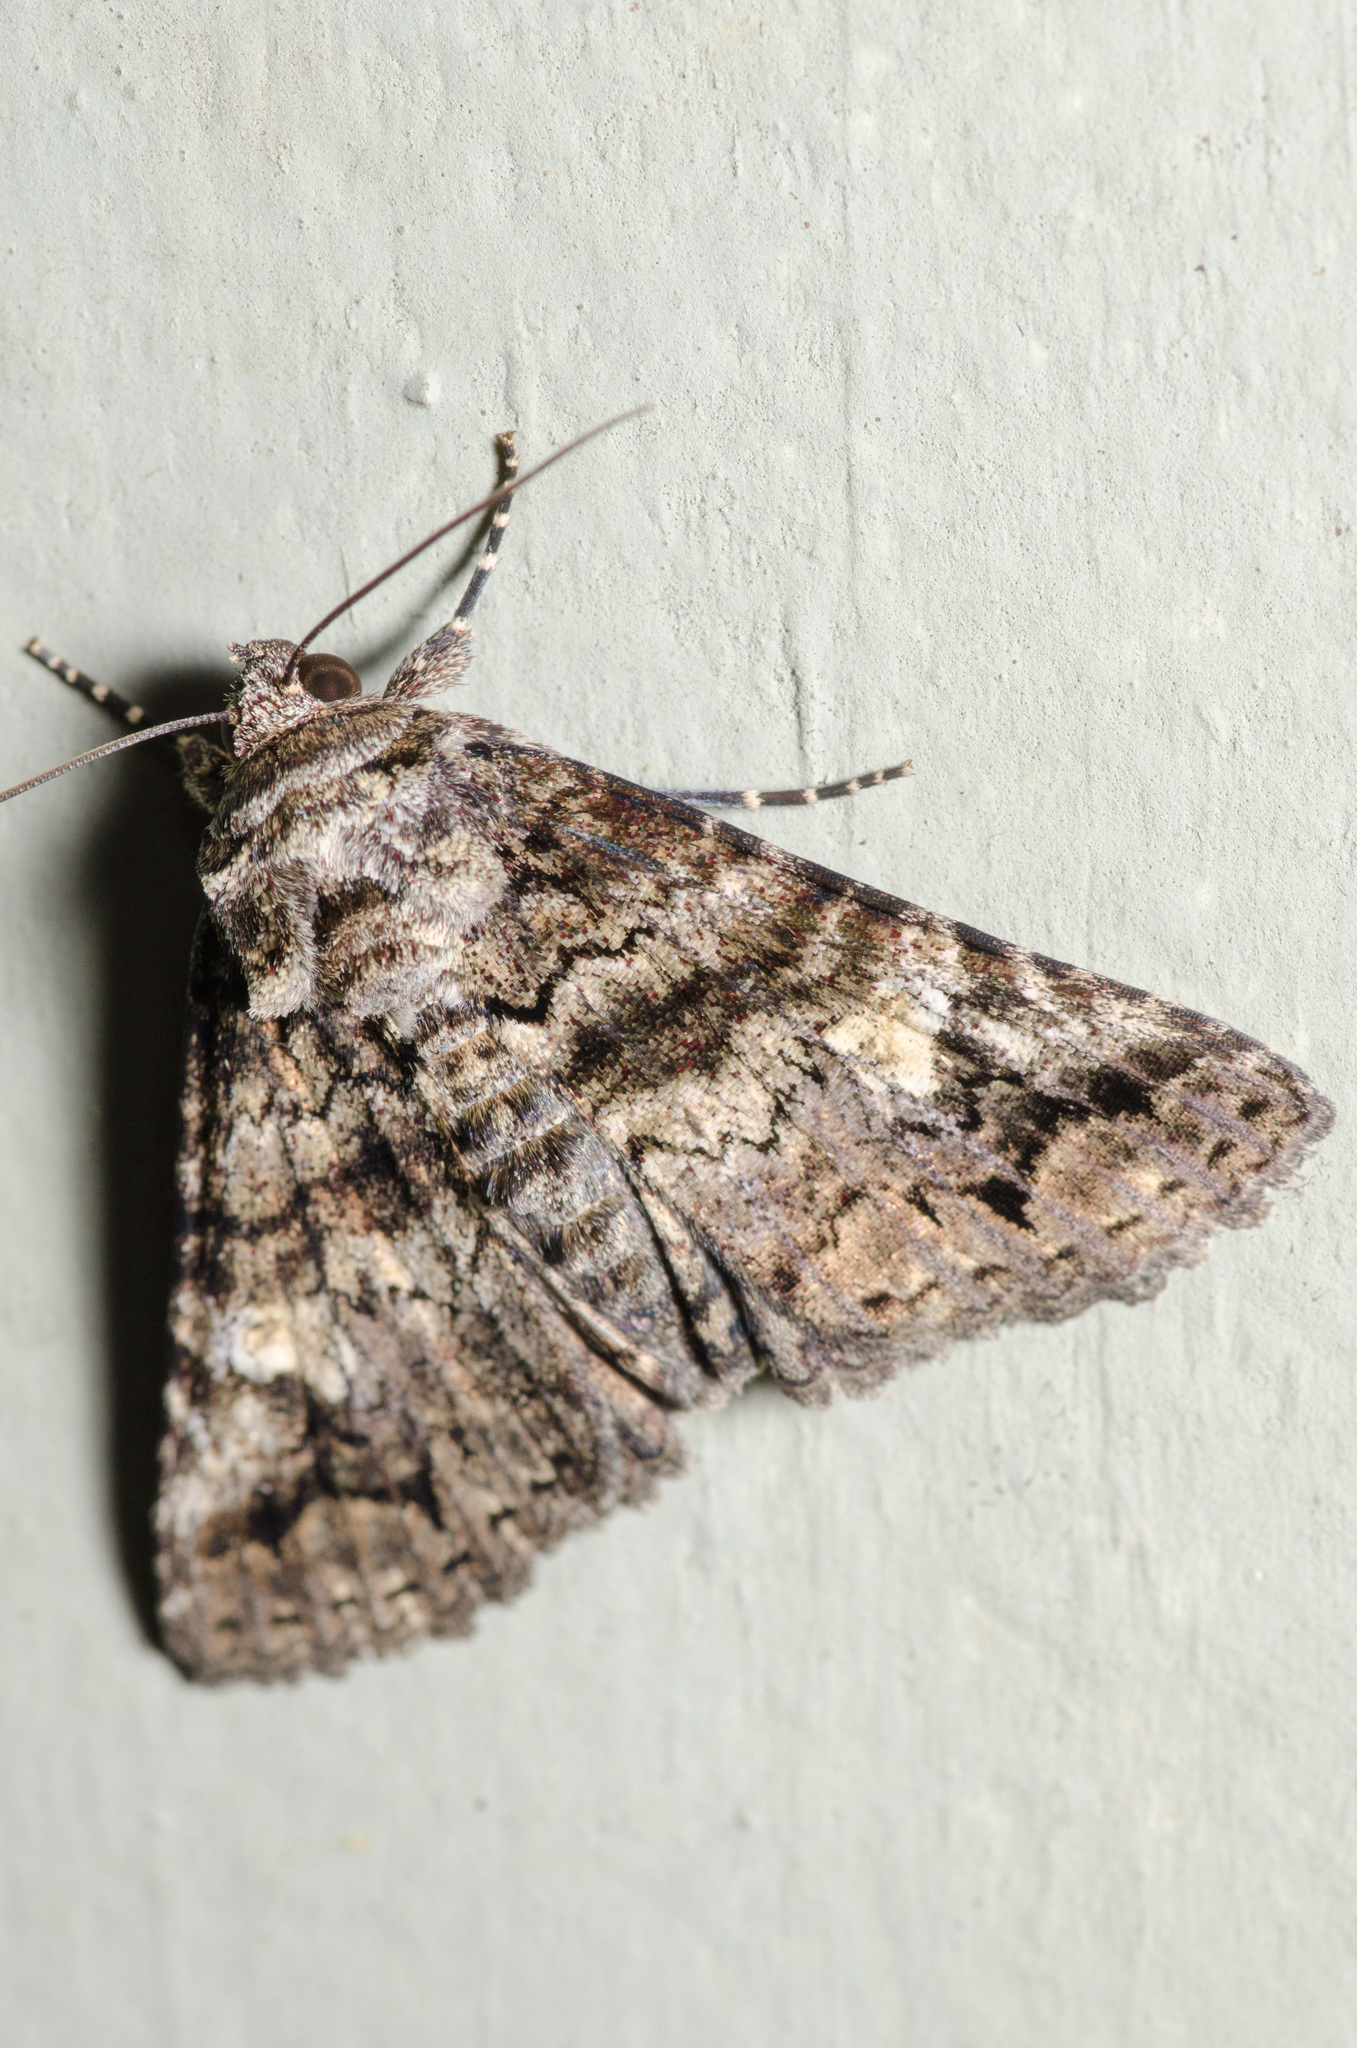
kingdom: Animalia
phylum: Arthropoda
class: Insecta
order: Lepidoptera
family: Erebidae
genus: Metria
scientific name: Metria amella
